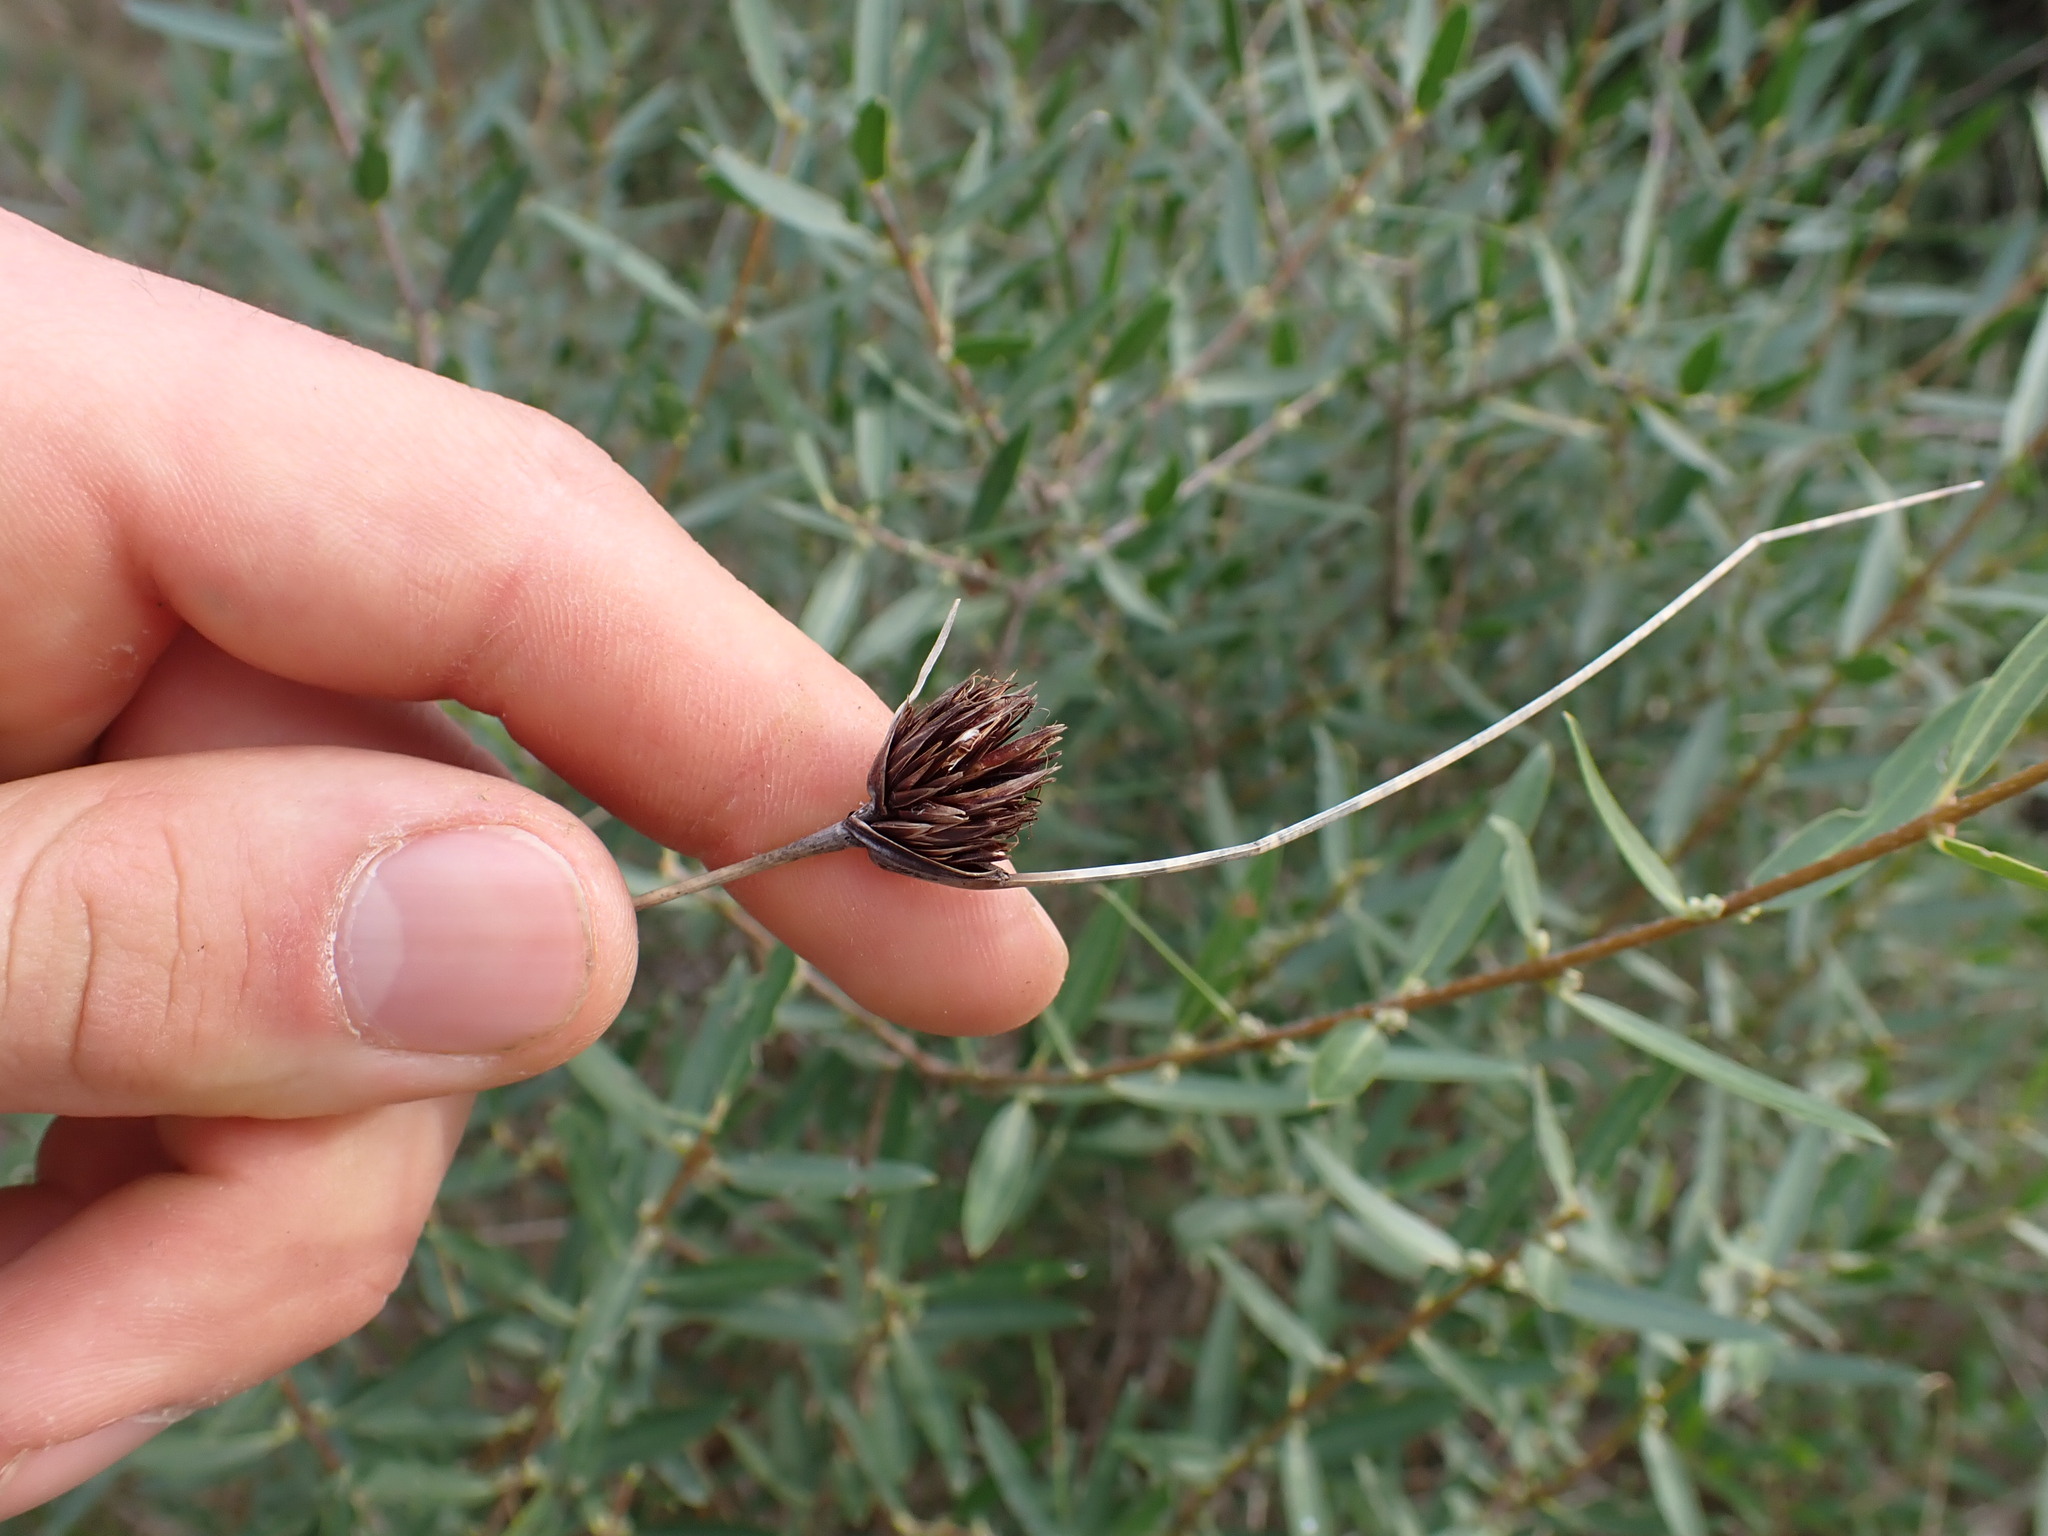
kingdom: Plantae
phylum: Tracheophyta
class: Liliopsida
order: Poales
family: Cyperaceae
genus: Schoenus
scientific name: Schoenus nigricans
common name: Black bog-rush
